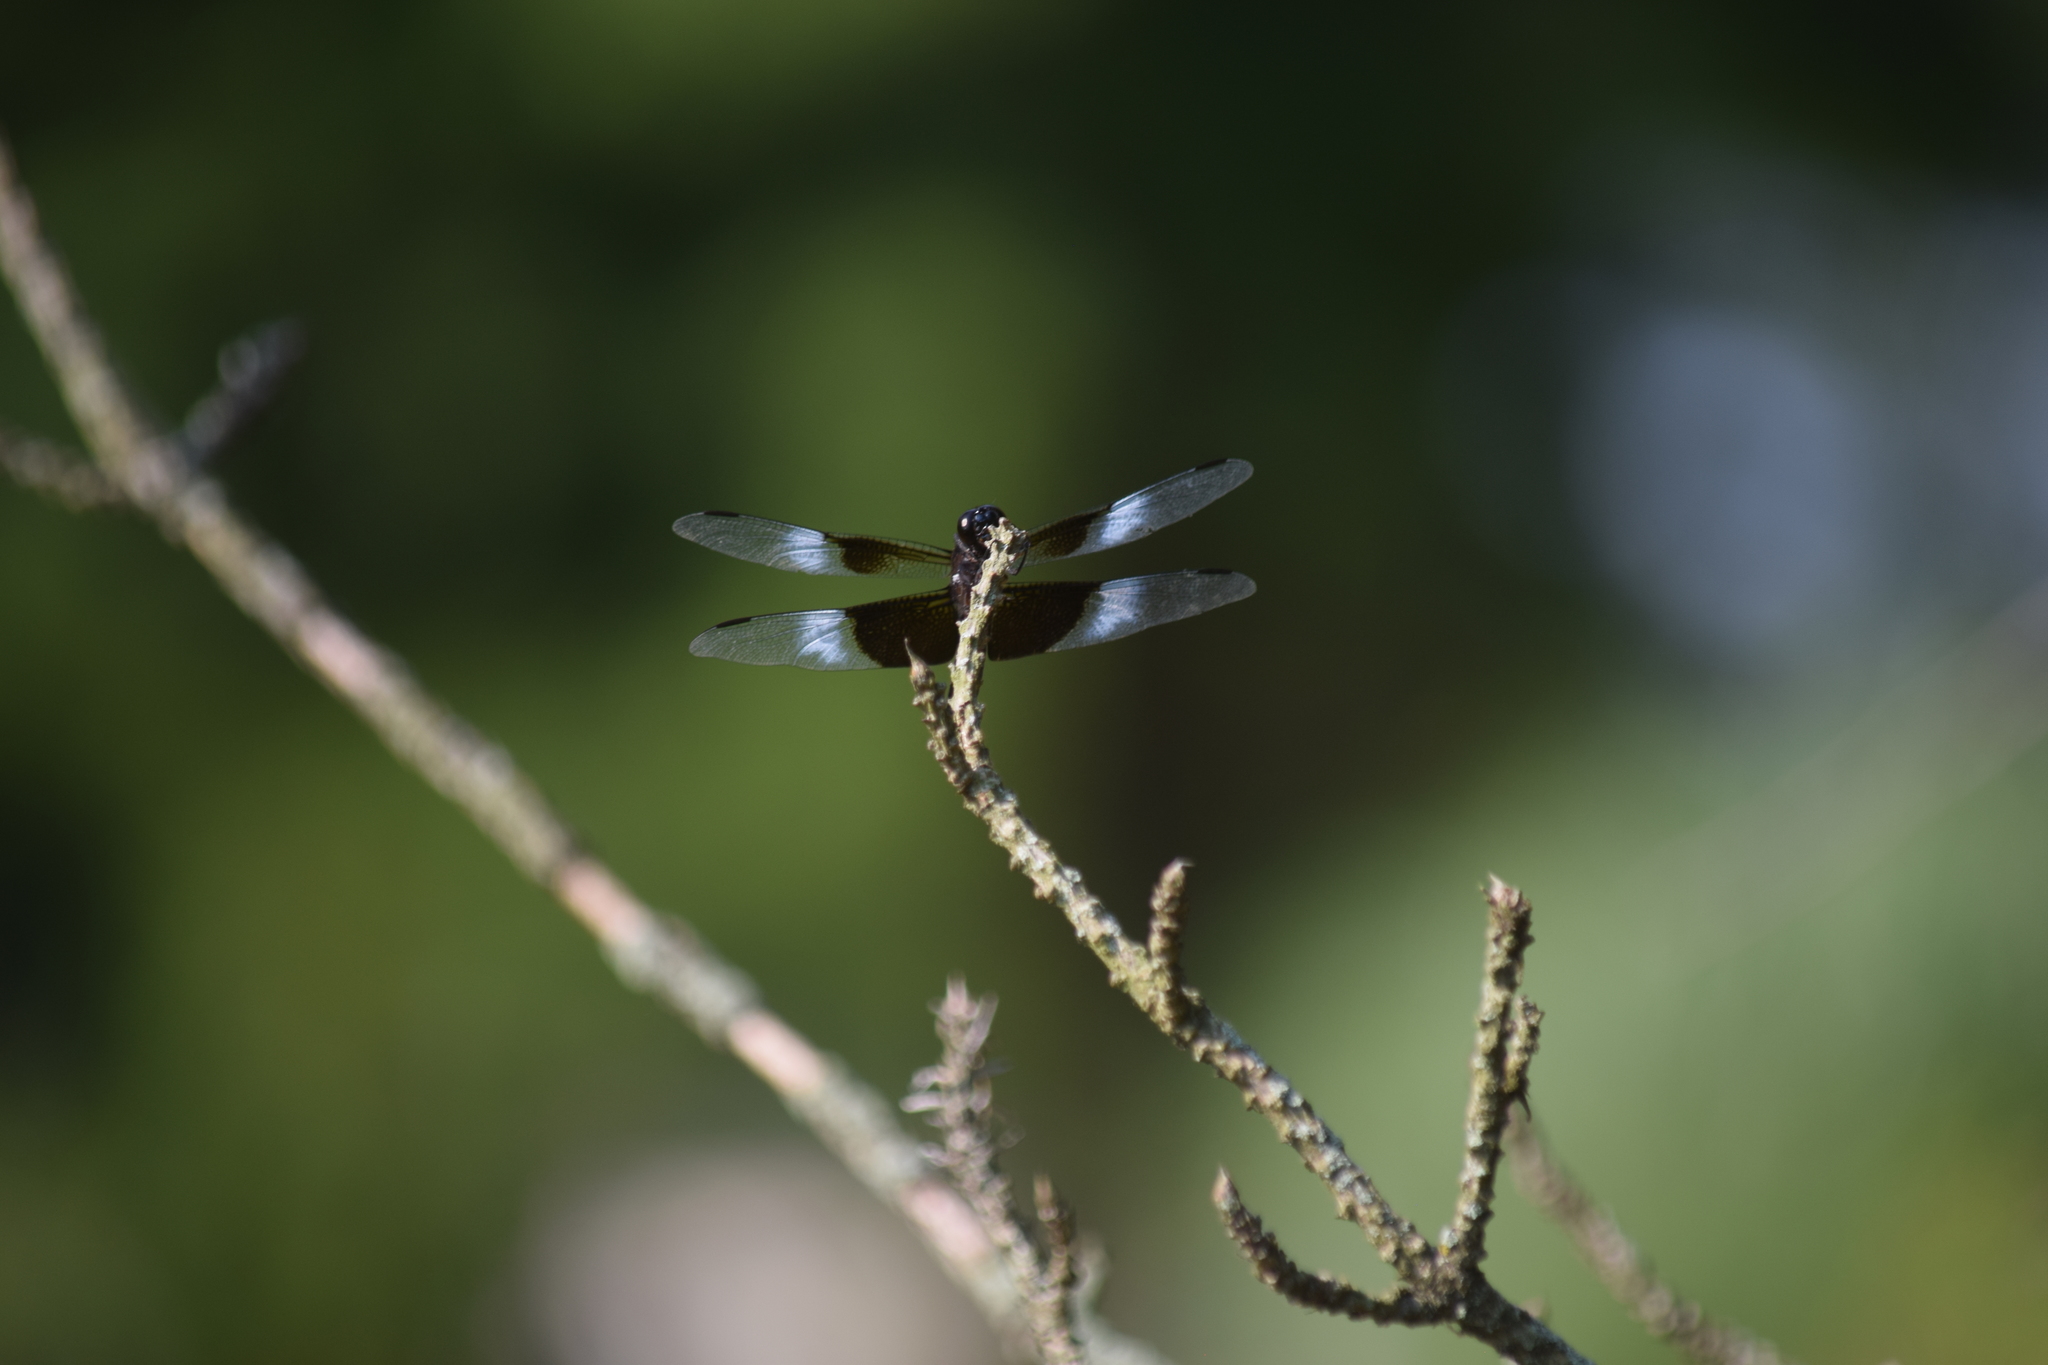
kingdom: Animalia
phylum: Arthropoda
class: Insecta
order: Odonata
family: Libellulidae
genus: Libellula
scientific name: Libellula luctuosa
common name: Widow skimmer
